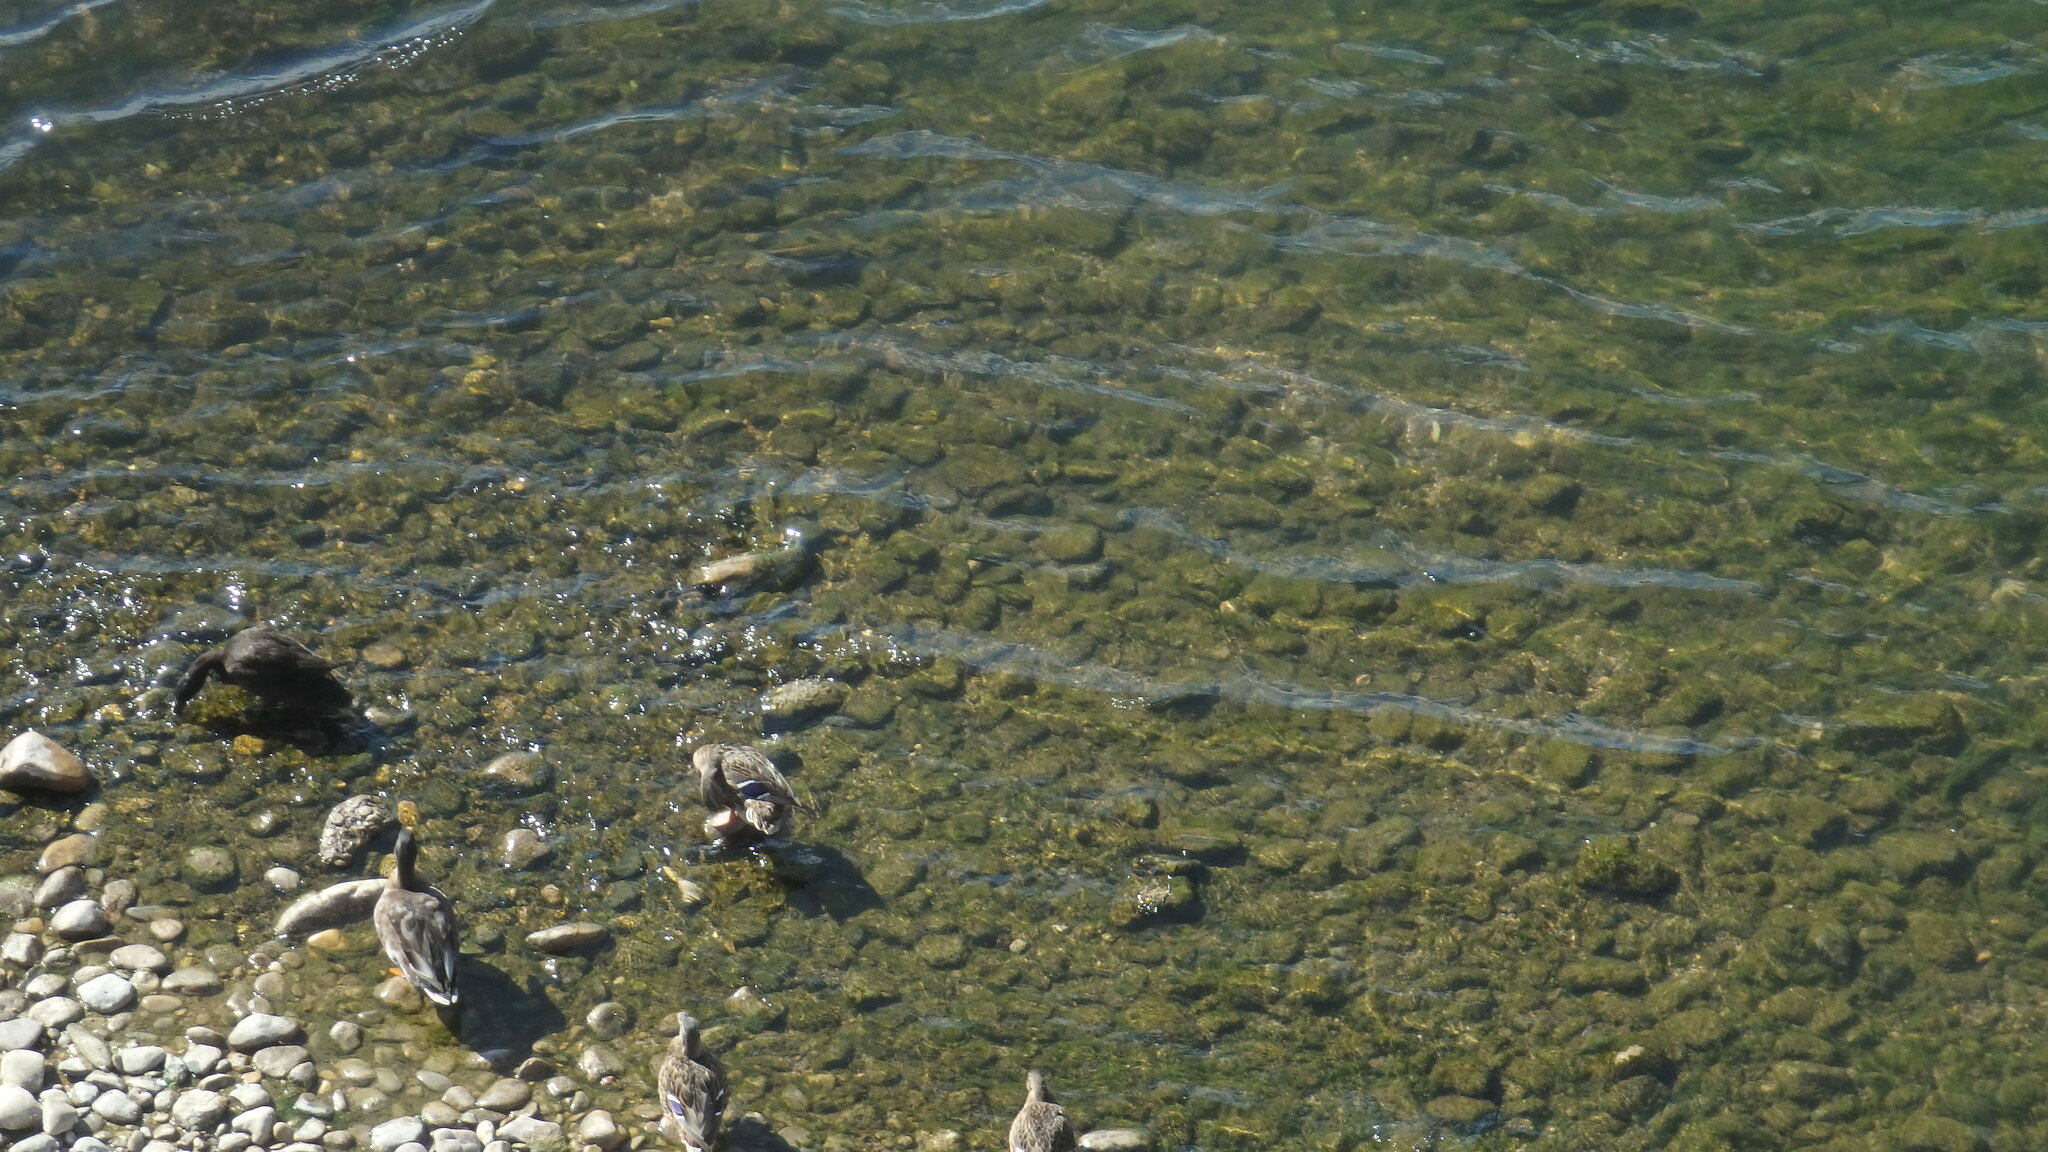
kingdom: Animalia
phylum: Chordata
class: Aves
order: Anseriformes
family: Anatidae
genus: Anas
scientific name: Anas platyrhynchos
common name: Mallard
